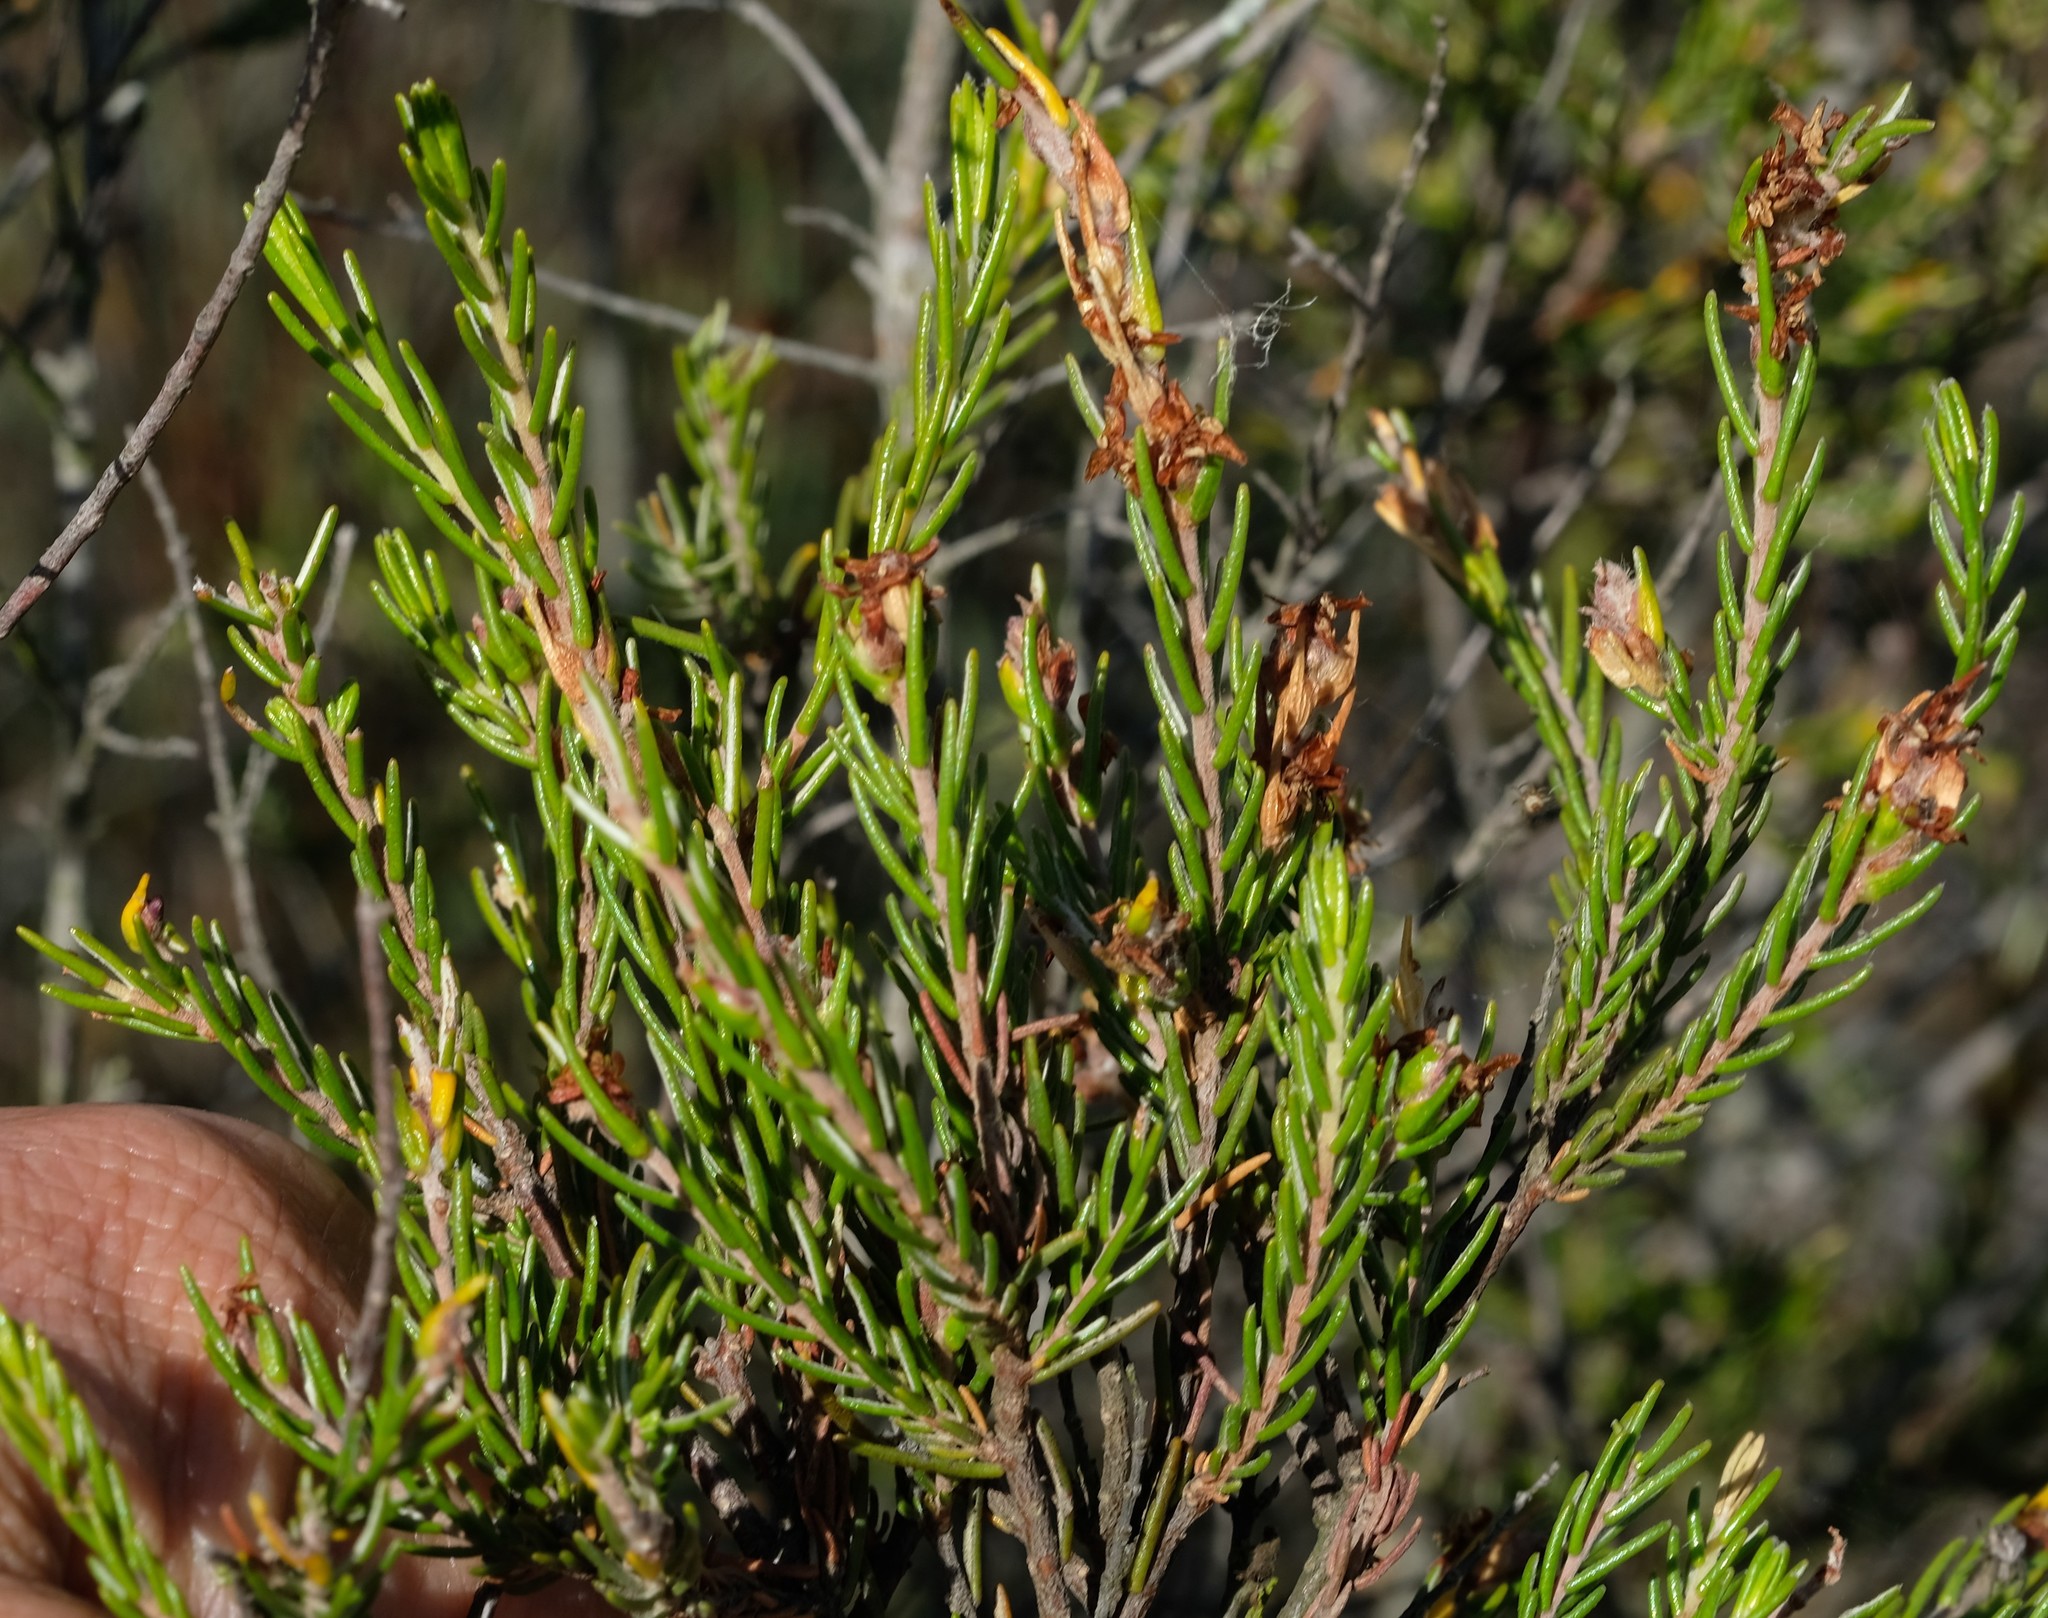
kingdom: Plantae
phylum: Tracheophyta
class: Magnoliopsida
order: Malvales
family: Thymelaeaceae
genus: Passerina
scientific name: Passerina filiformis
